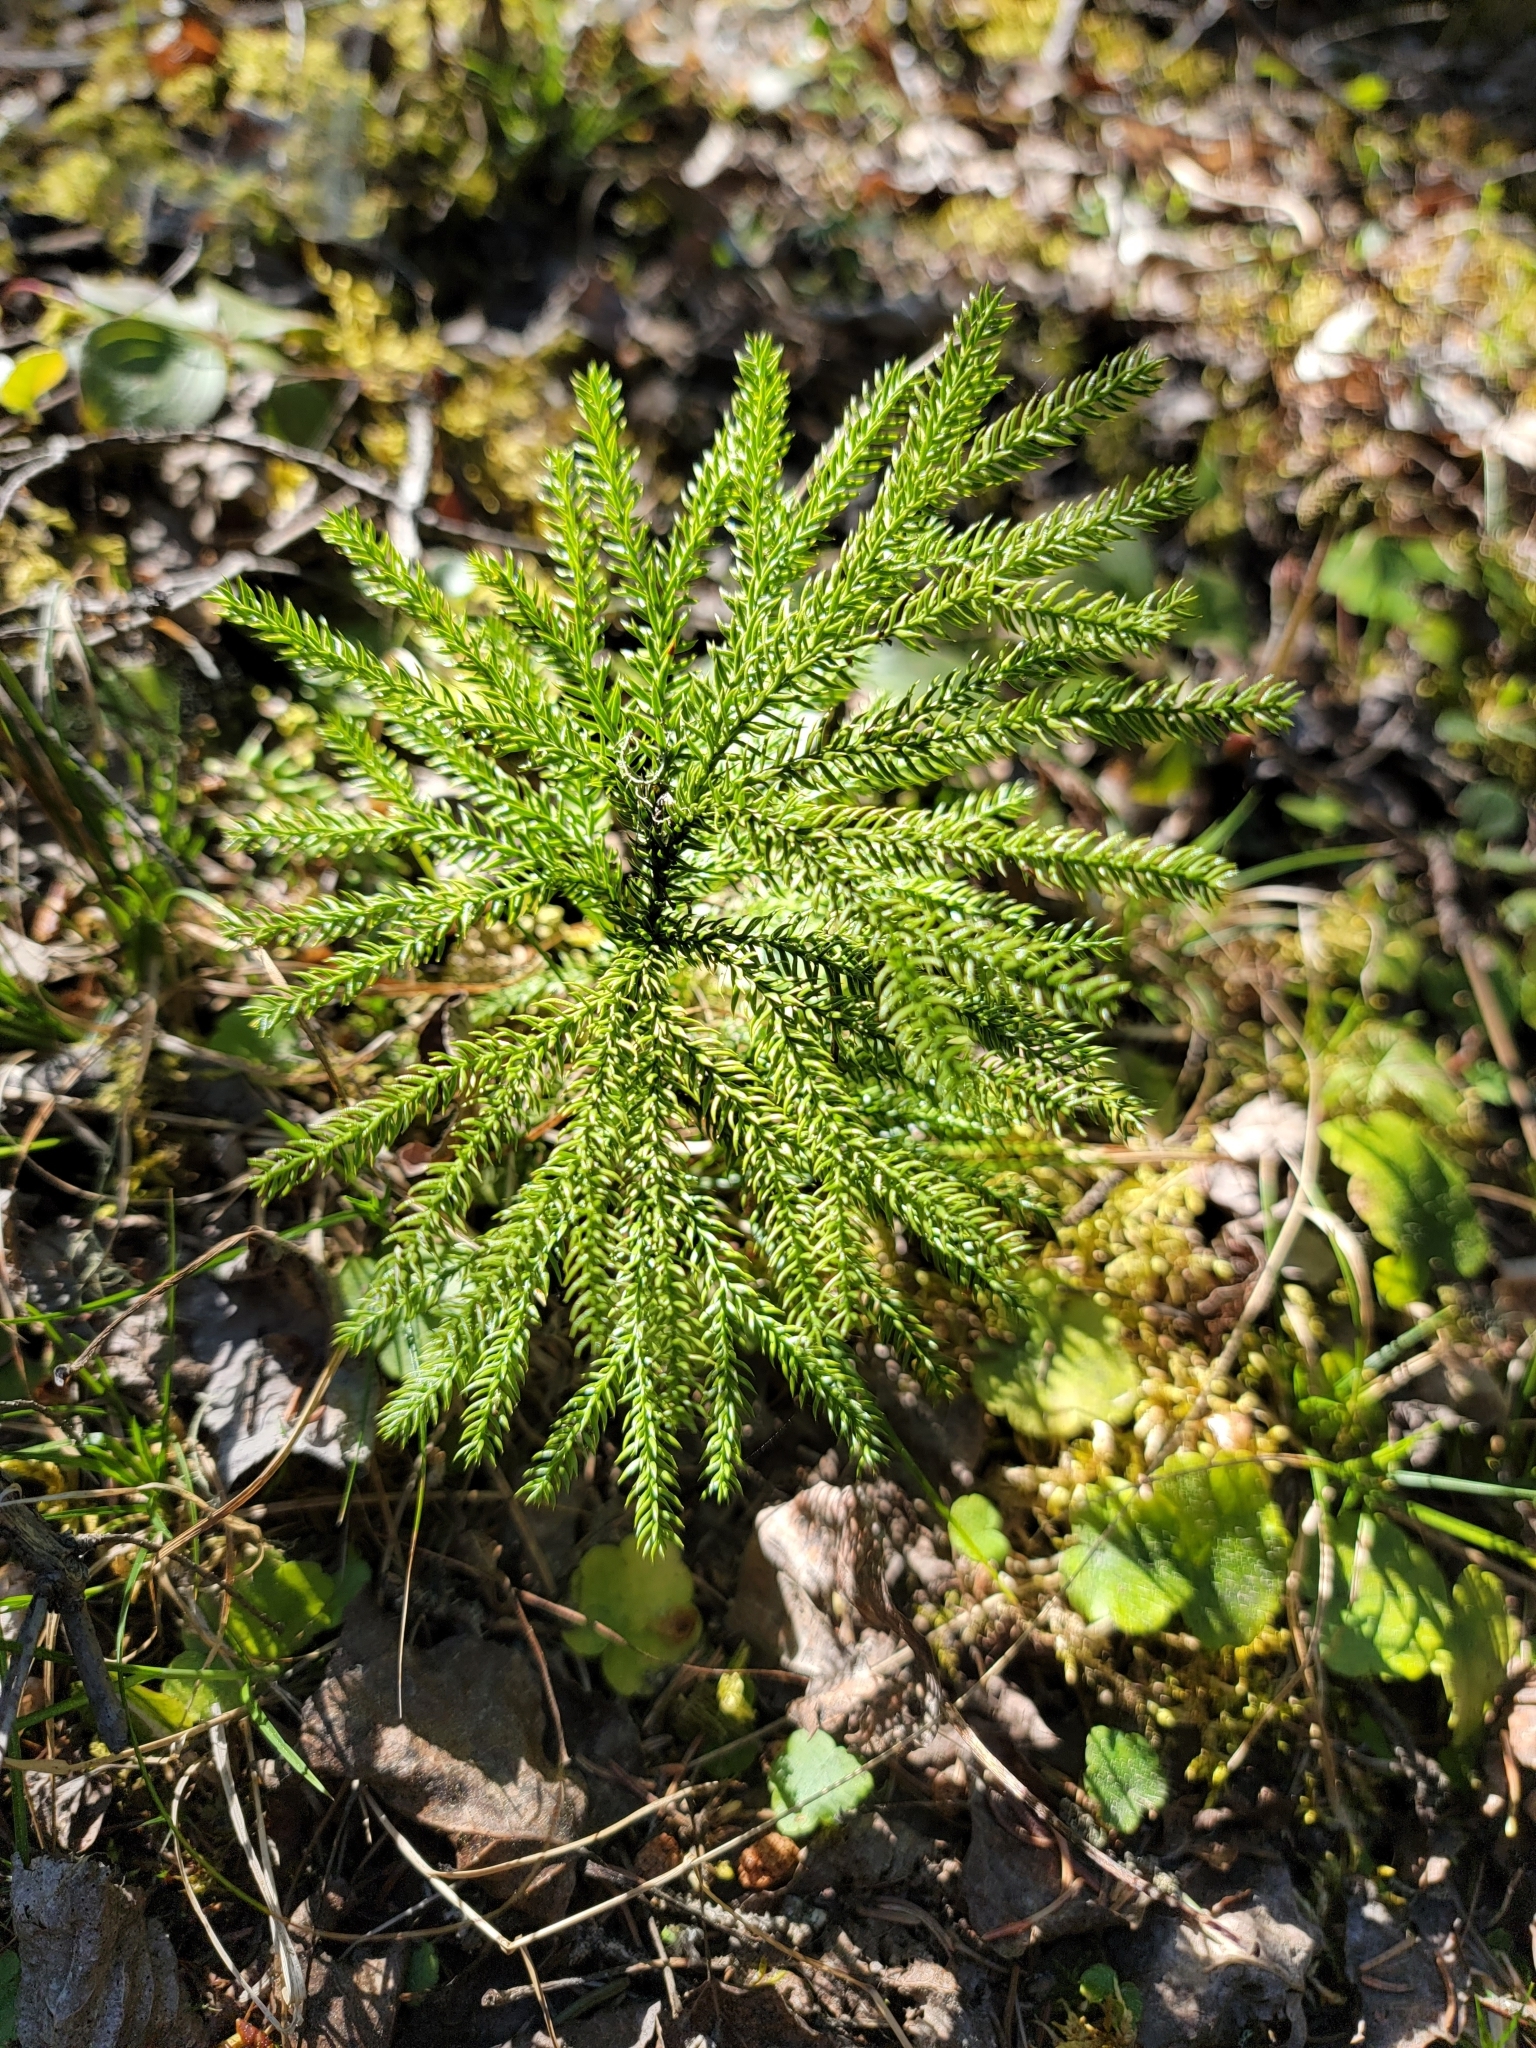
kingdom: Plantae
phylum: Tracheophyta
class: Lycopodiopsida
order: Lycopodiales
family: Lycopodiaceae
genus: Dendrolycopodium
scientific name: Dendrolycopodium dendroideum
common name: Northern tree-clubmoss
